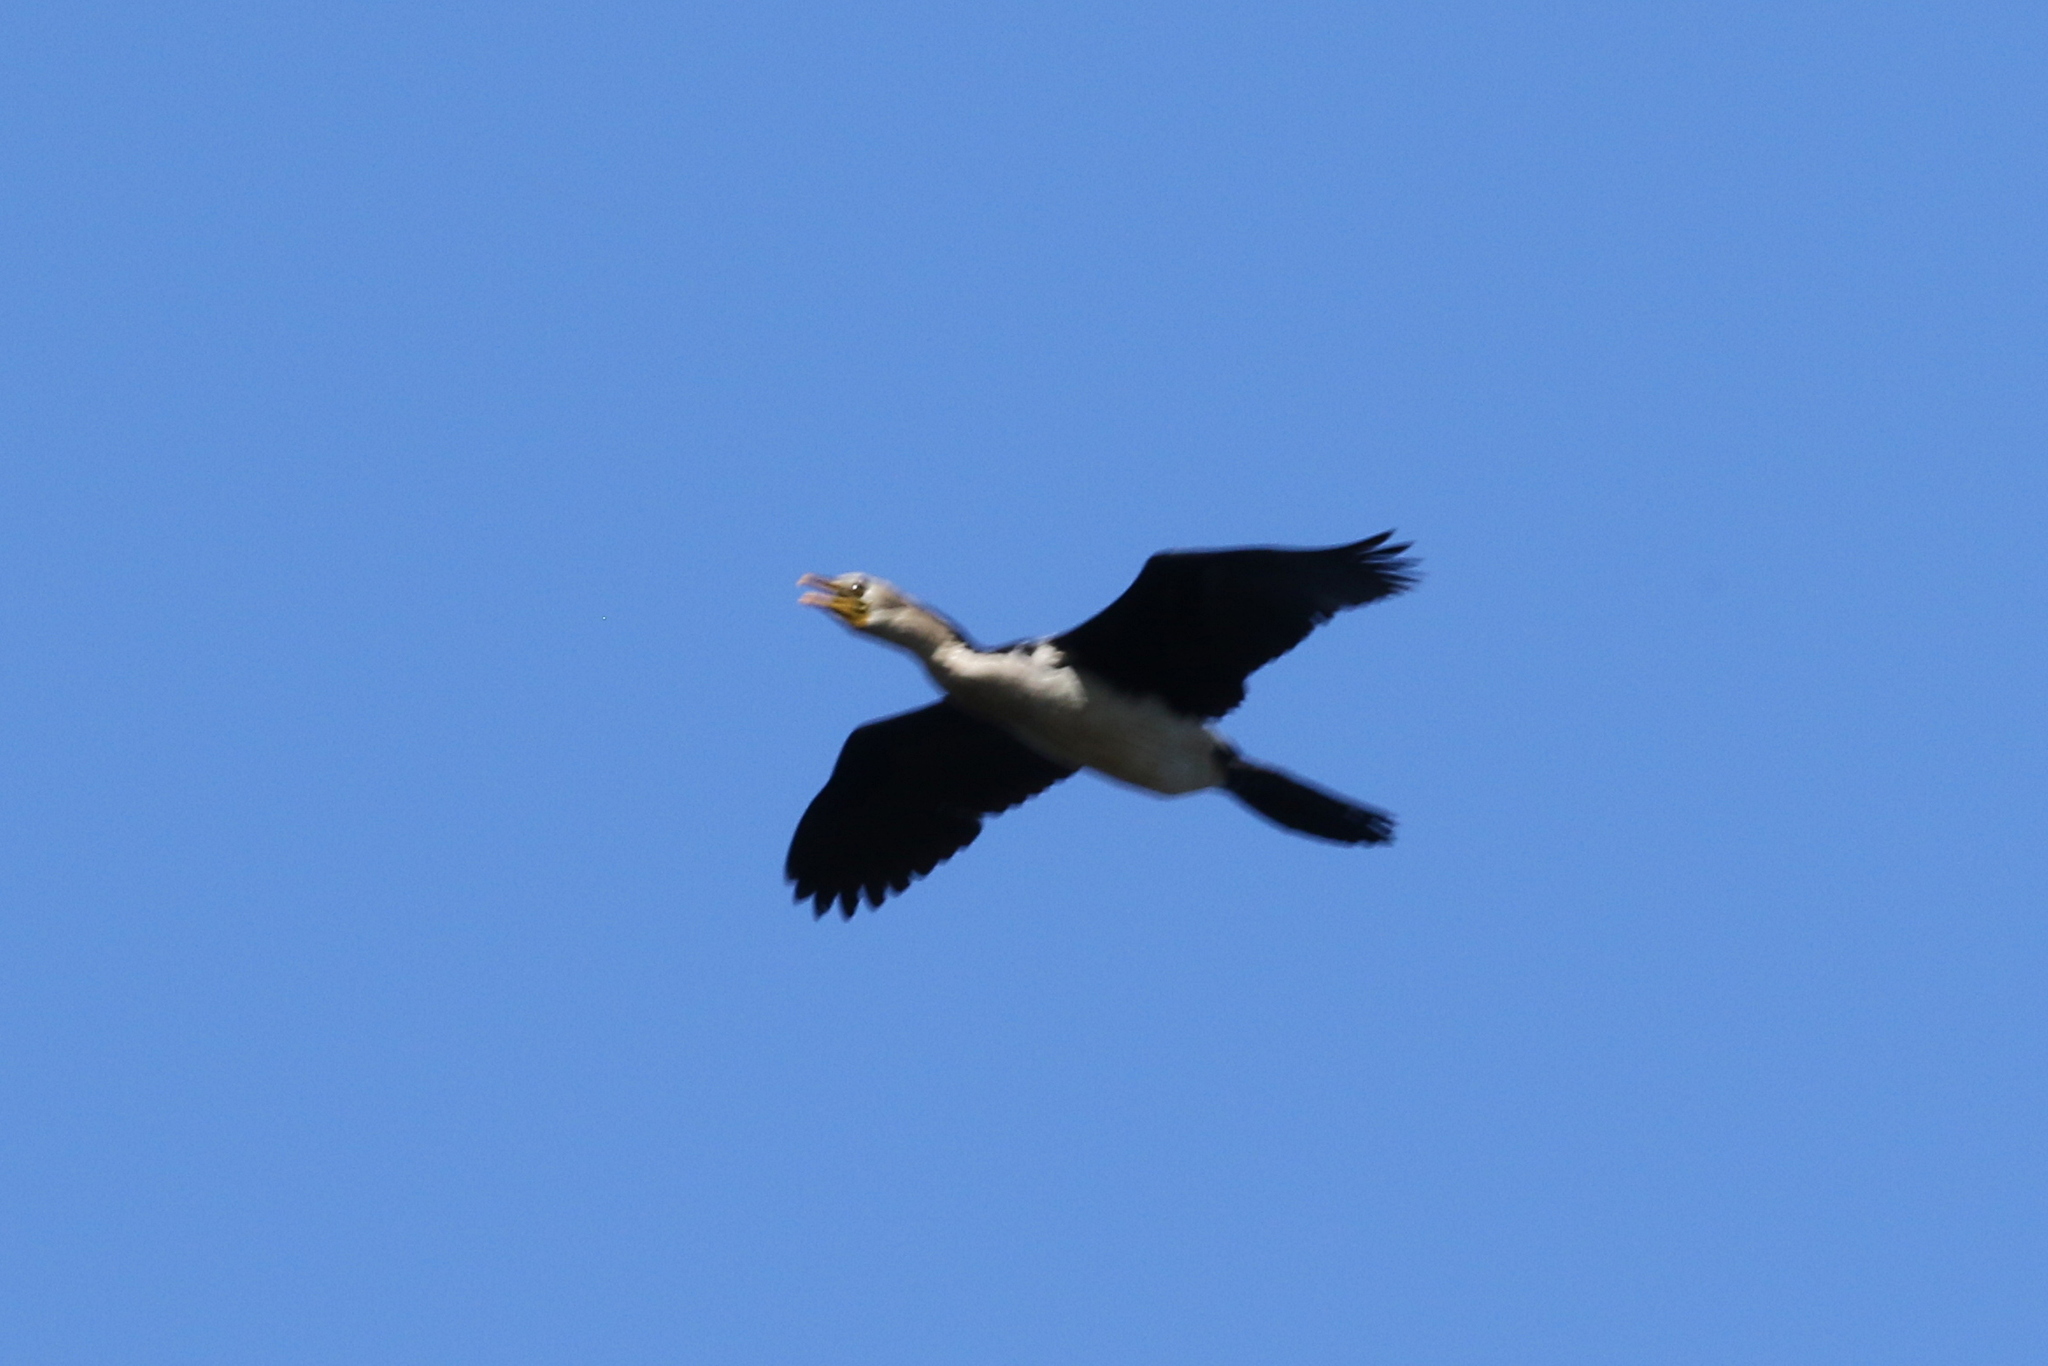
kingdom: Animalia
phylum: Chordata
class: Aves
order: Suliformes
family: Phalacrocoracidae
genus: Microcarbo
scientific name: Microcarbo melanoleucos
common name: Little pied cormorant
